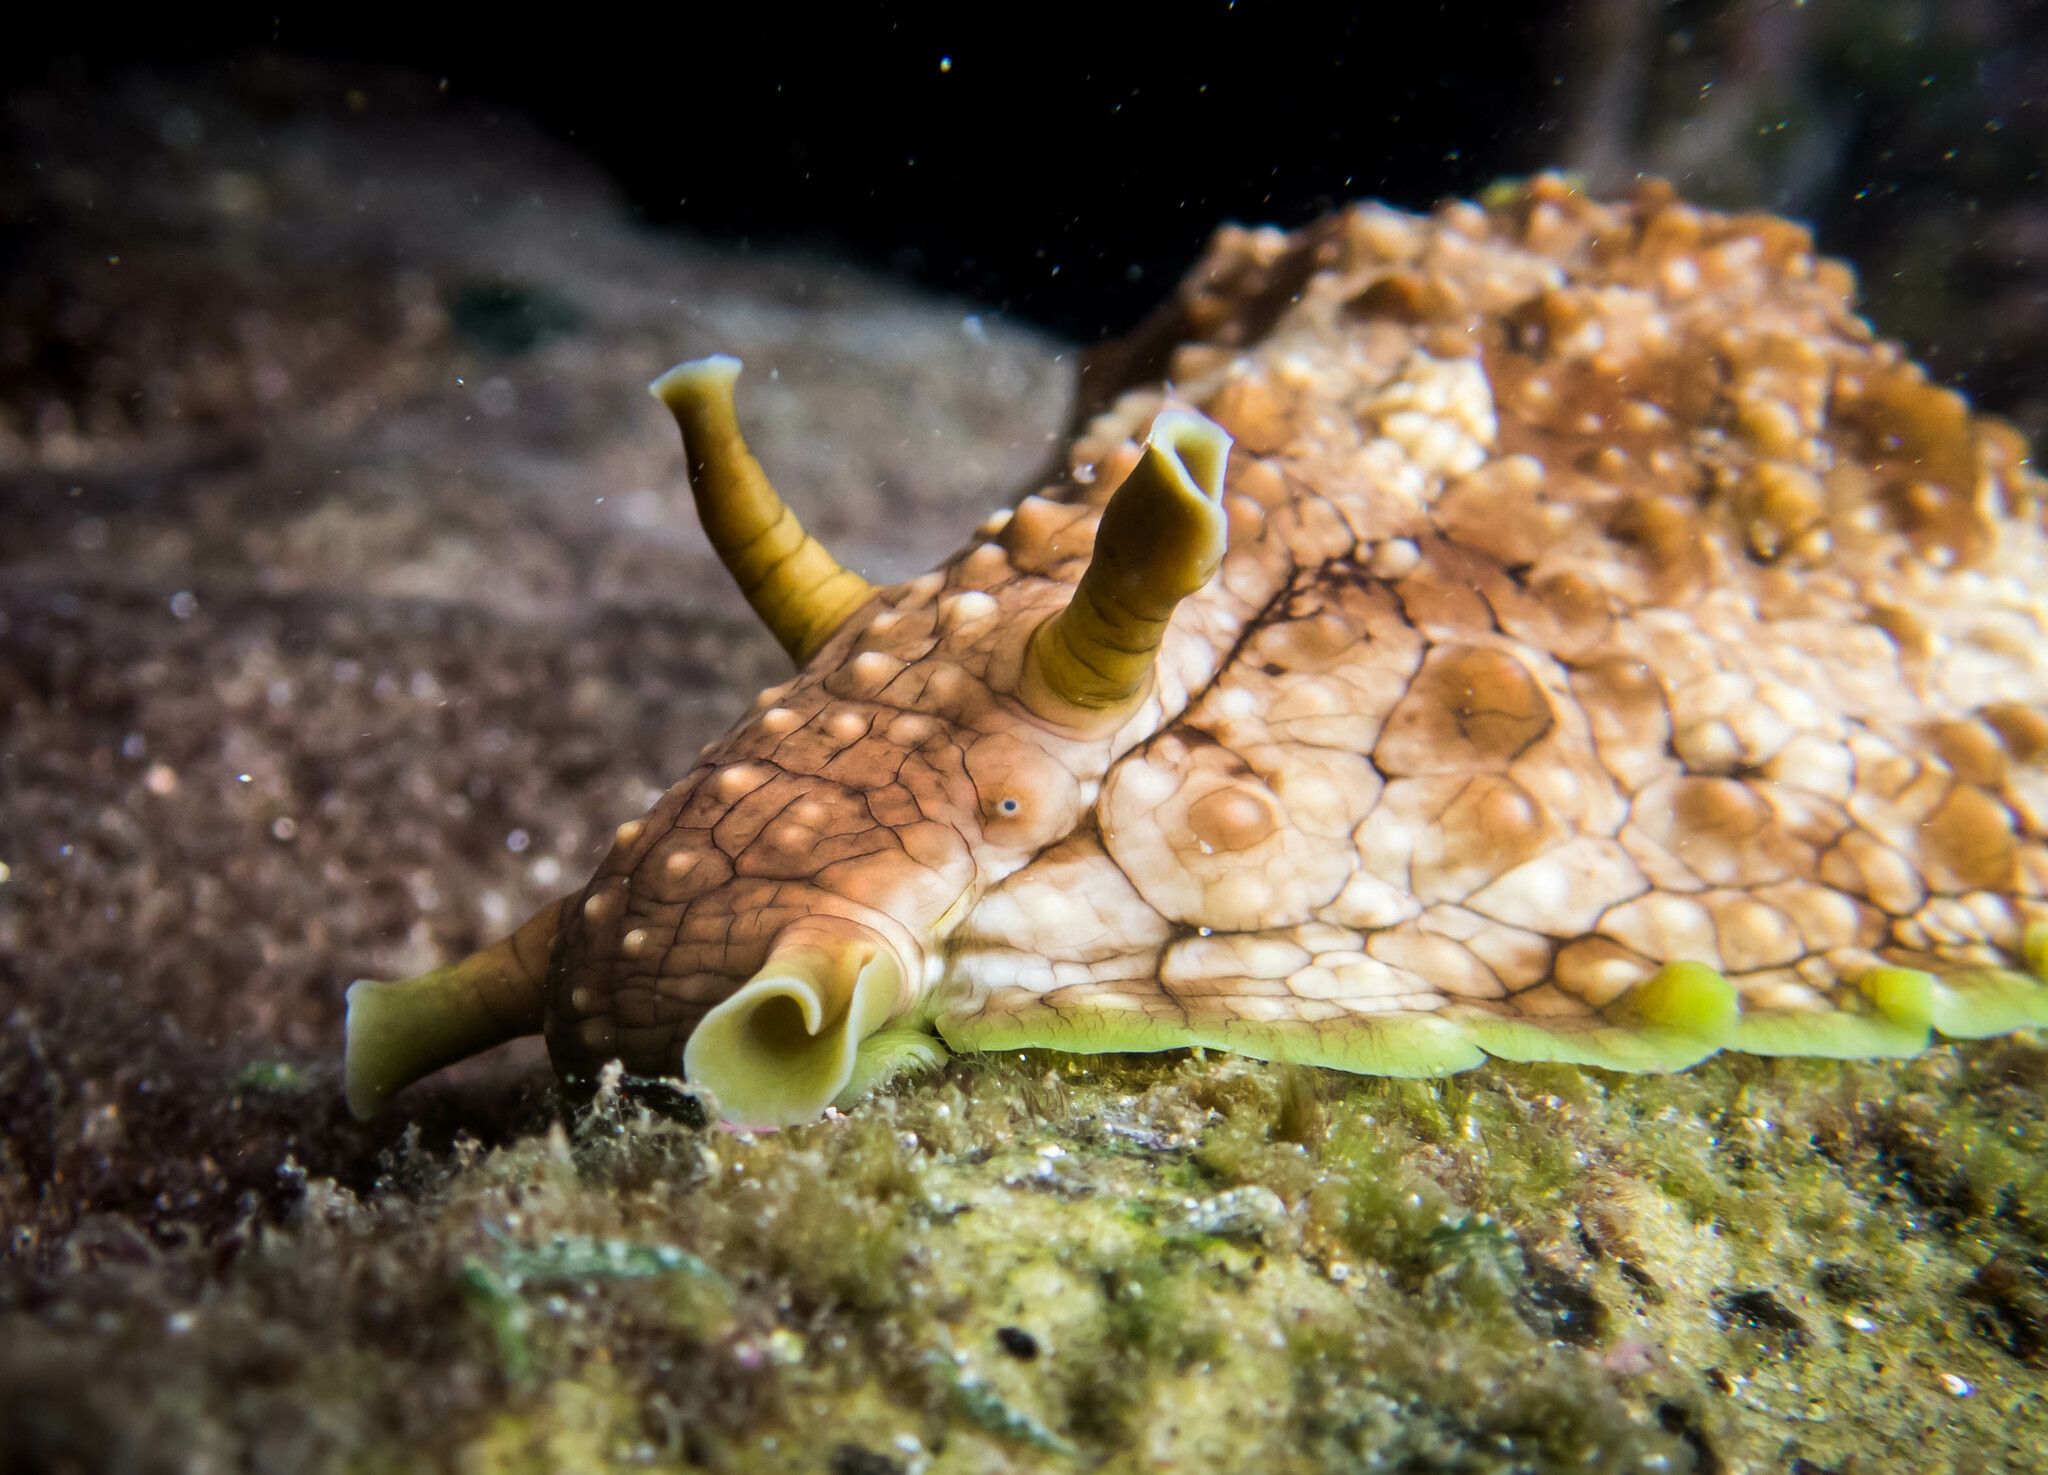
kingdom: Animalia
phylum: Mollusca
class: Gastropoda
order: Aplysiida
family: Aplysiidae
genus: Dolabrifera
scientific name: Dolabrifera brazieri
